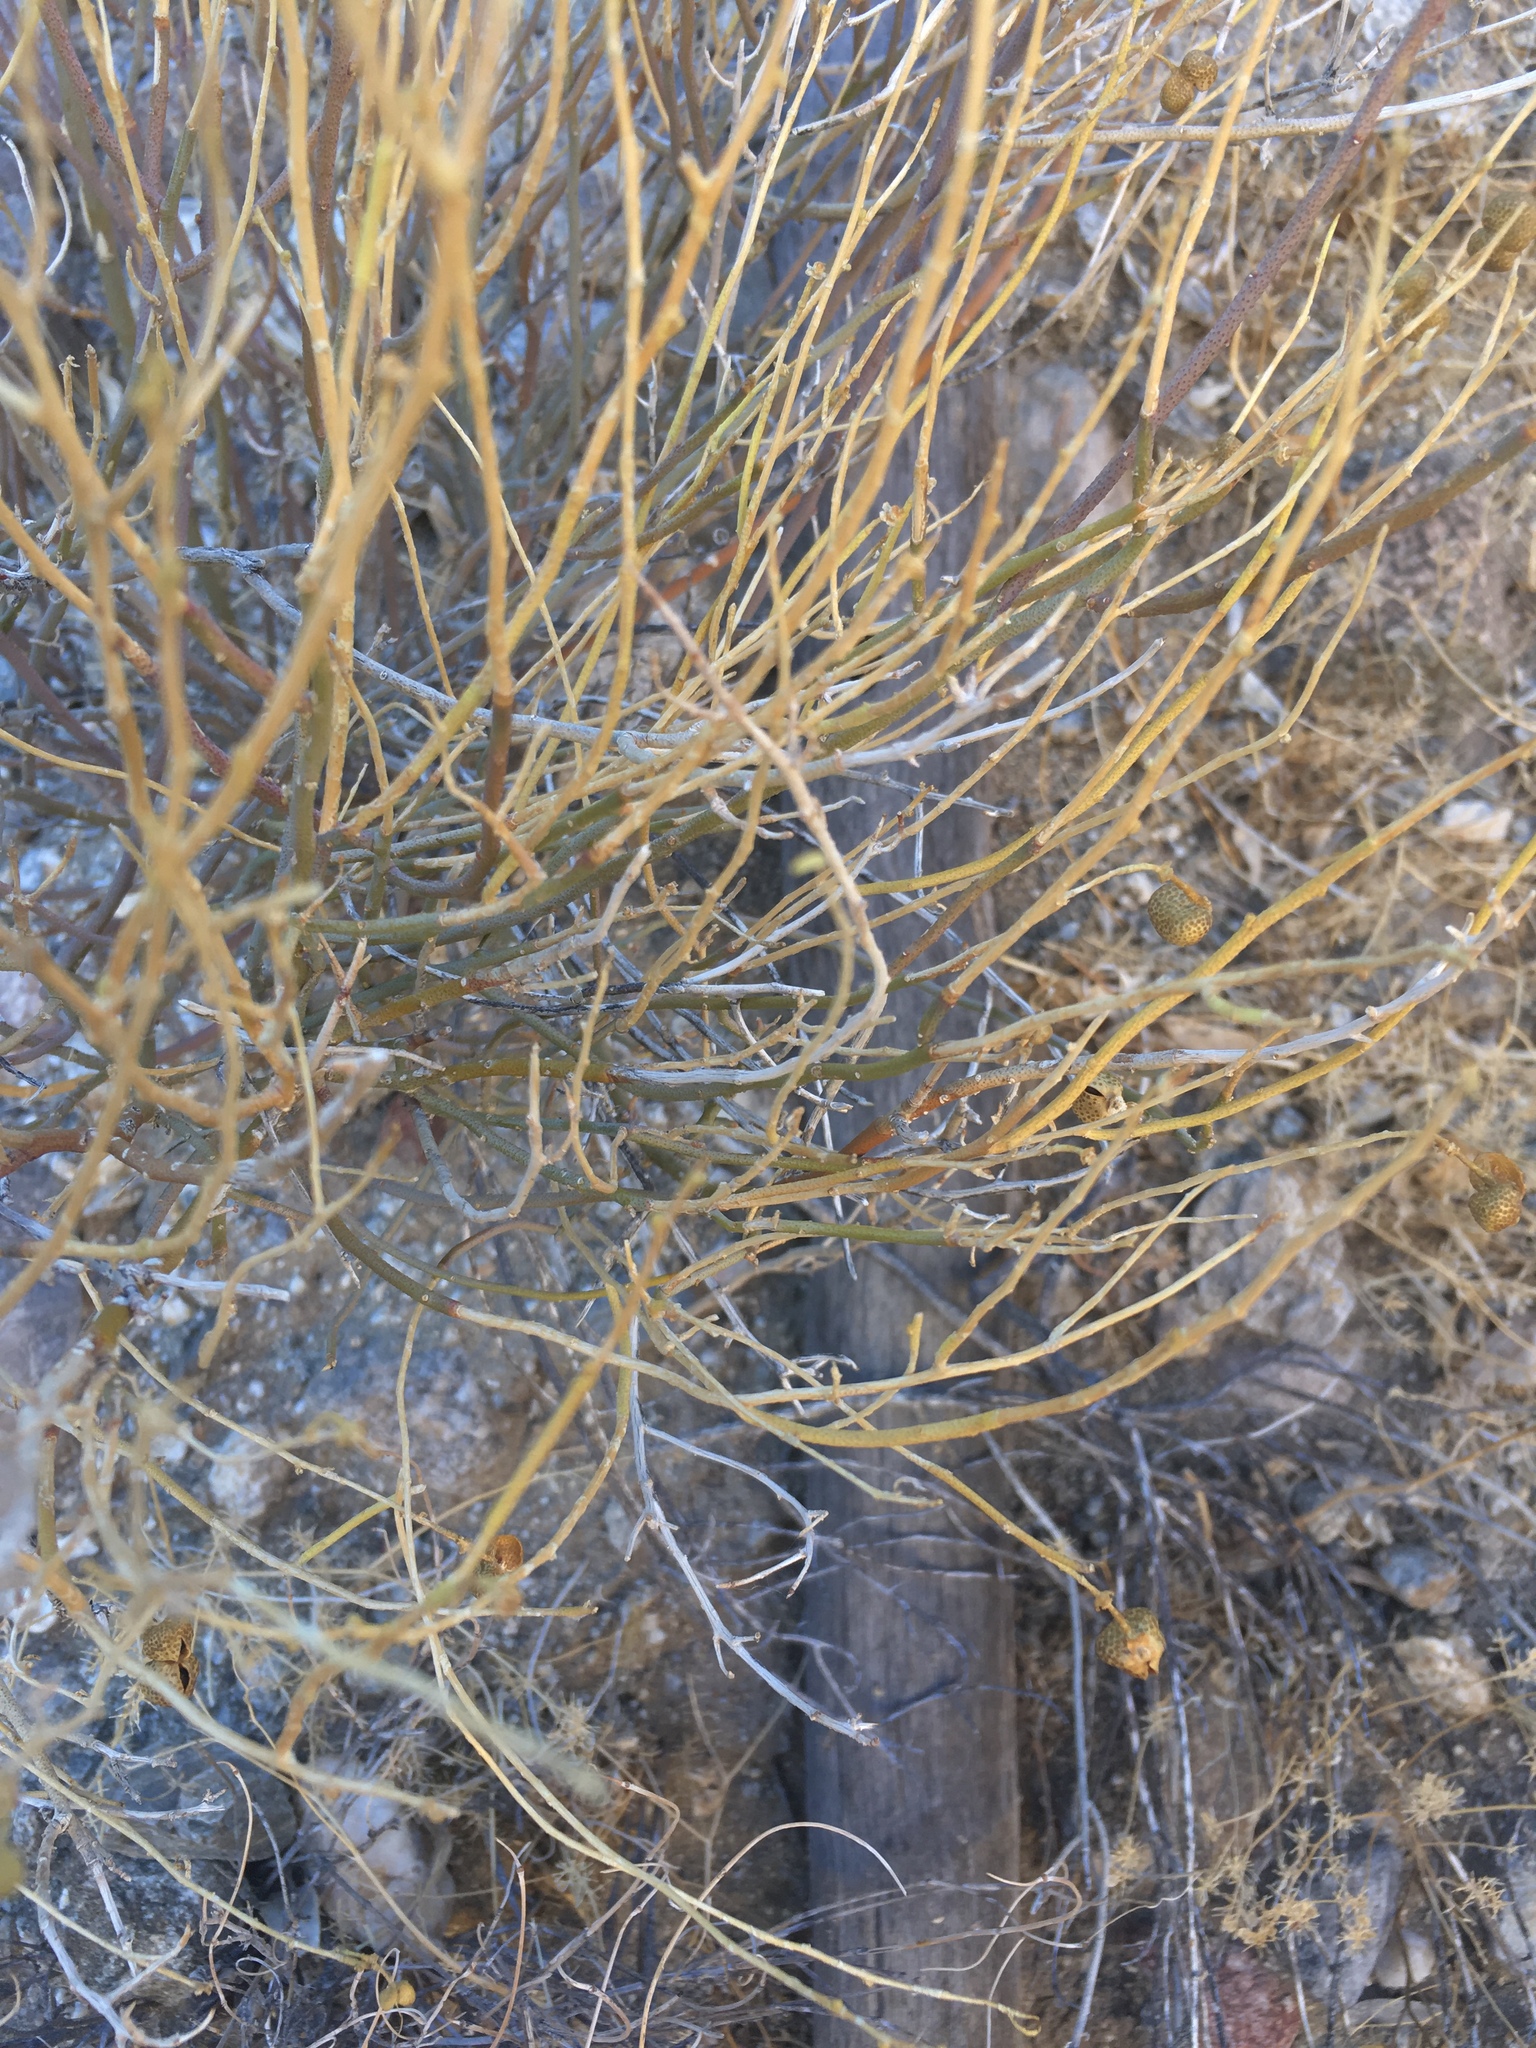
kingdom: Plantae
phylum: Tracheophyta
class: Magnoliopsida
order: Sapindales
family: Rutaceae
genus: Thamnosma
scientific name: Thamnosma montana
